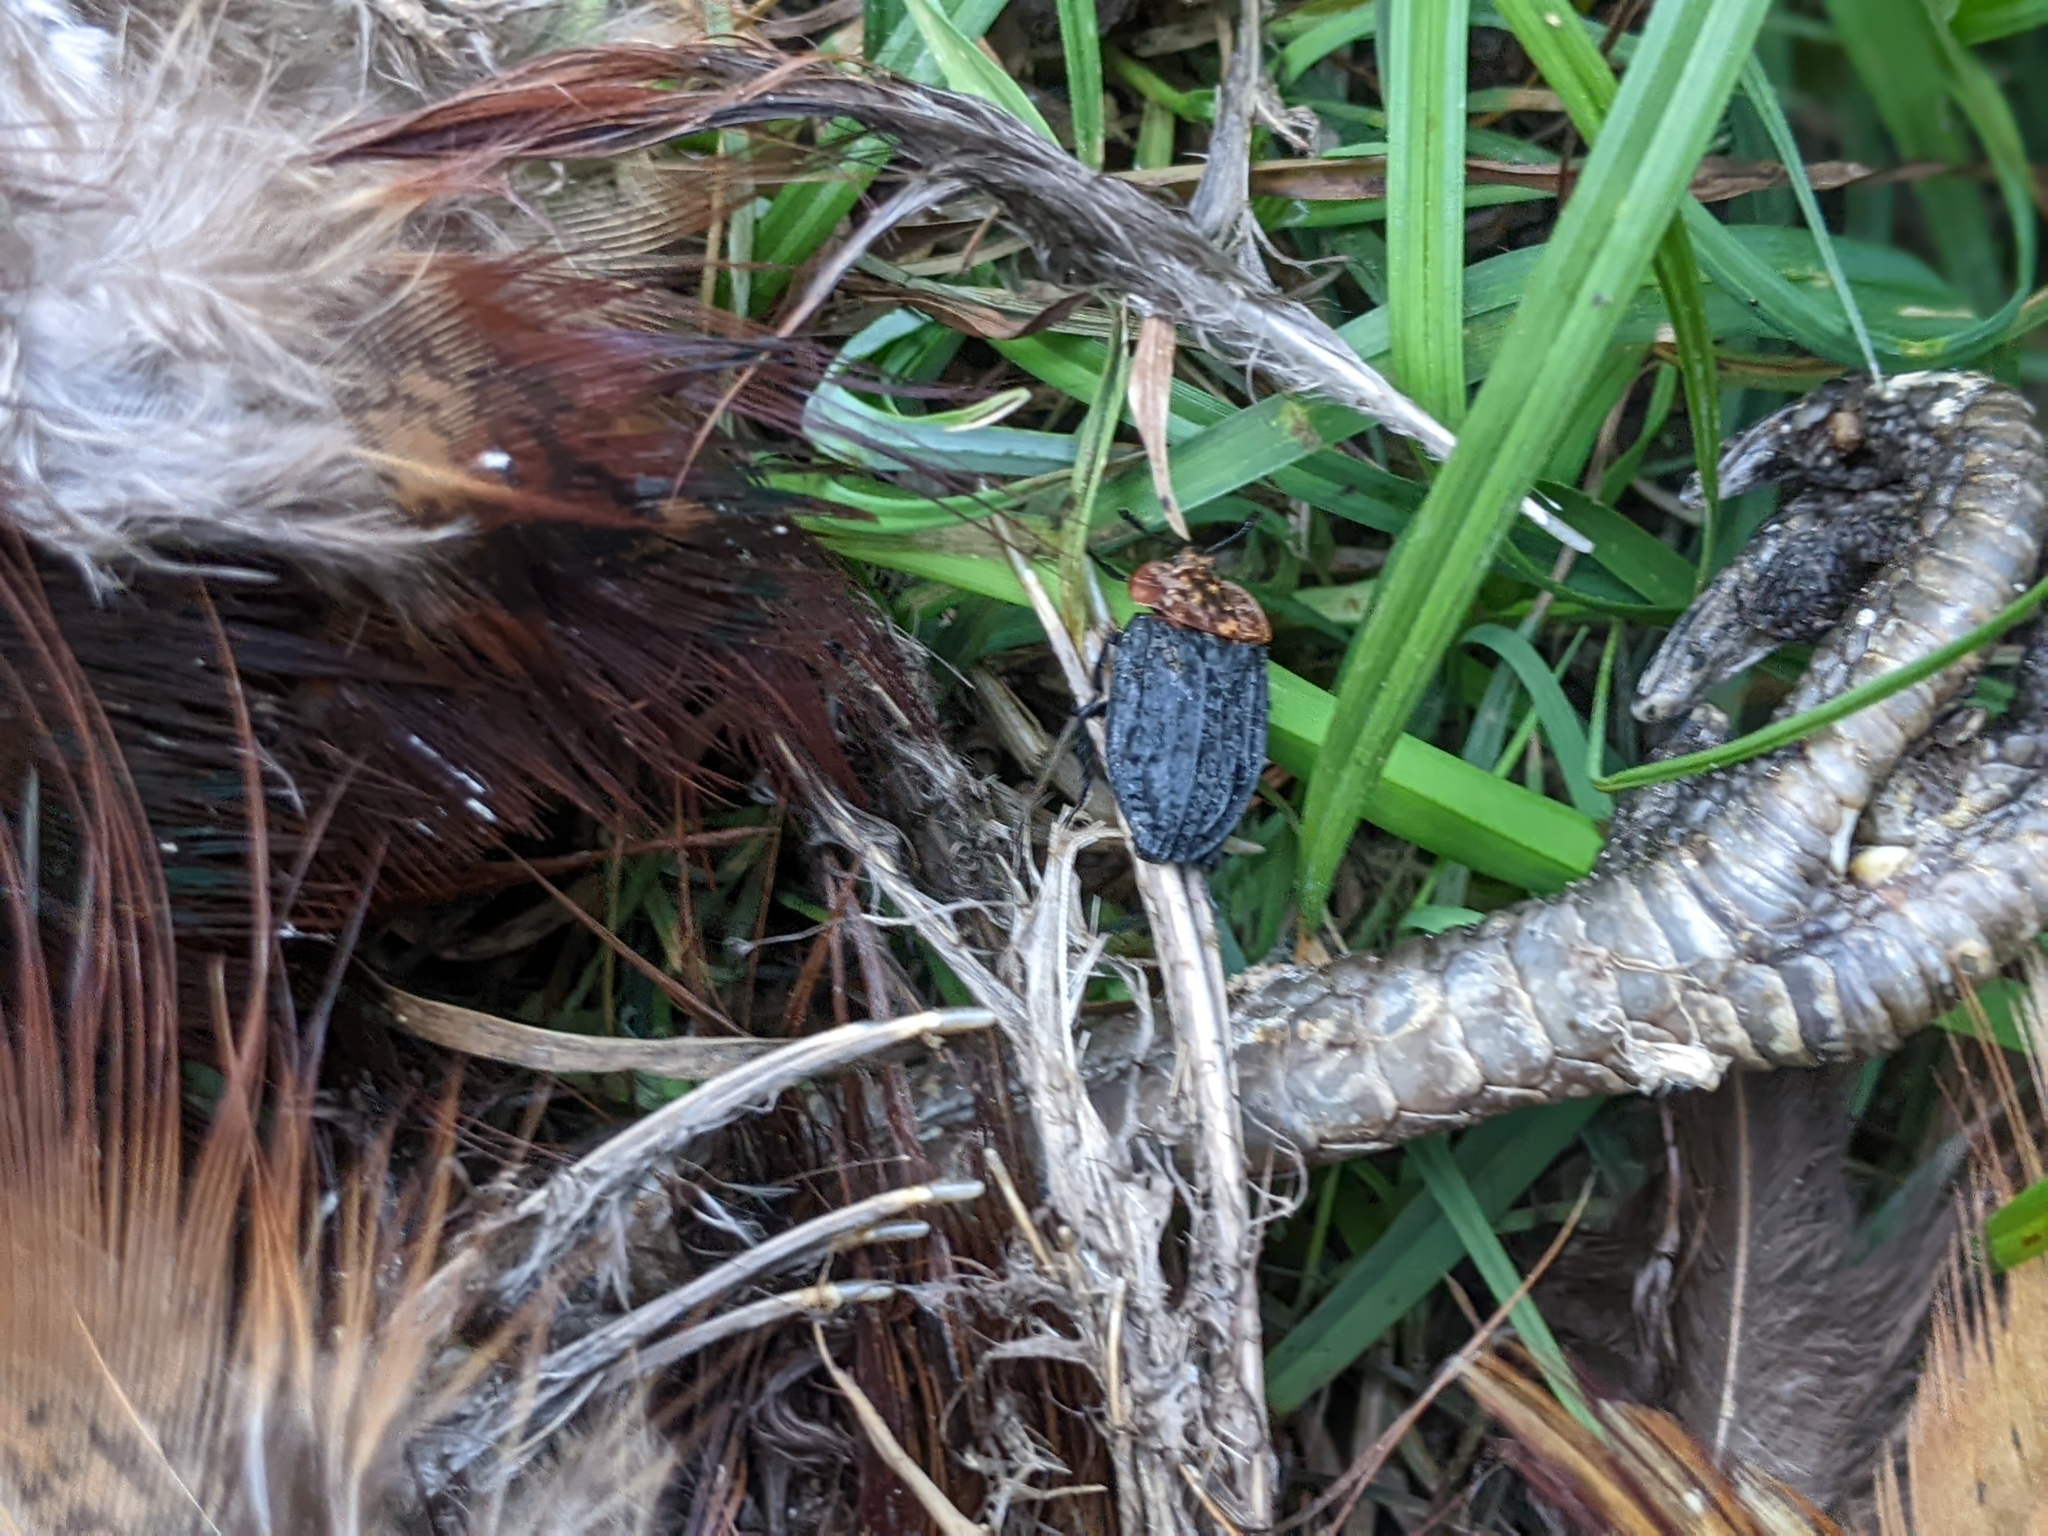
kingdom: Animalia
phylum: Arthropoda
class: Insecta
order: Coleoptera
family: Staphylinidae
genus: Oiceoptoma
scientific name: Oiceoptoma thoracicum
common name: Red-breasted carrion beetle
